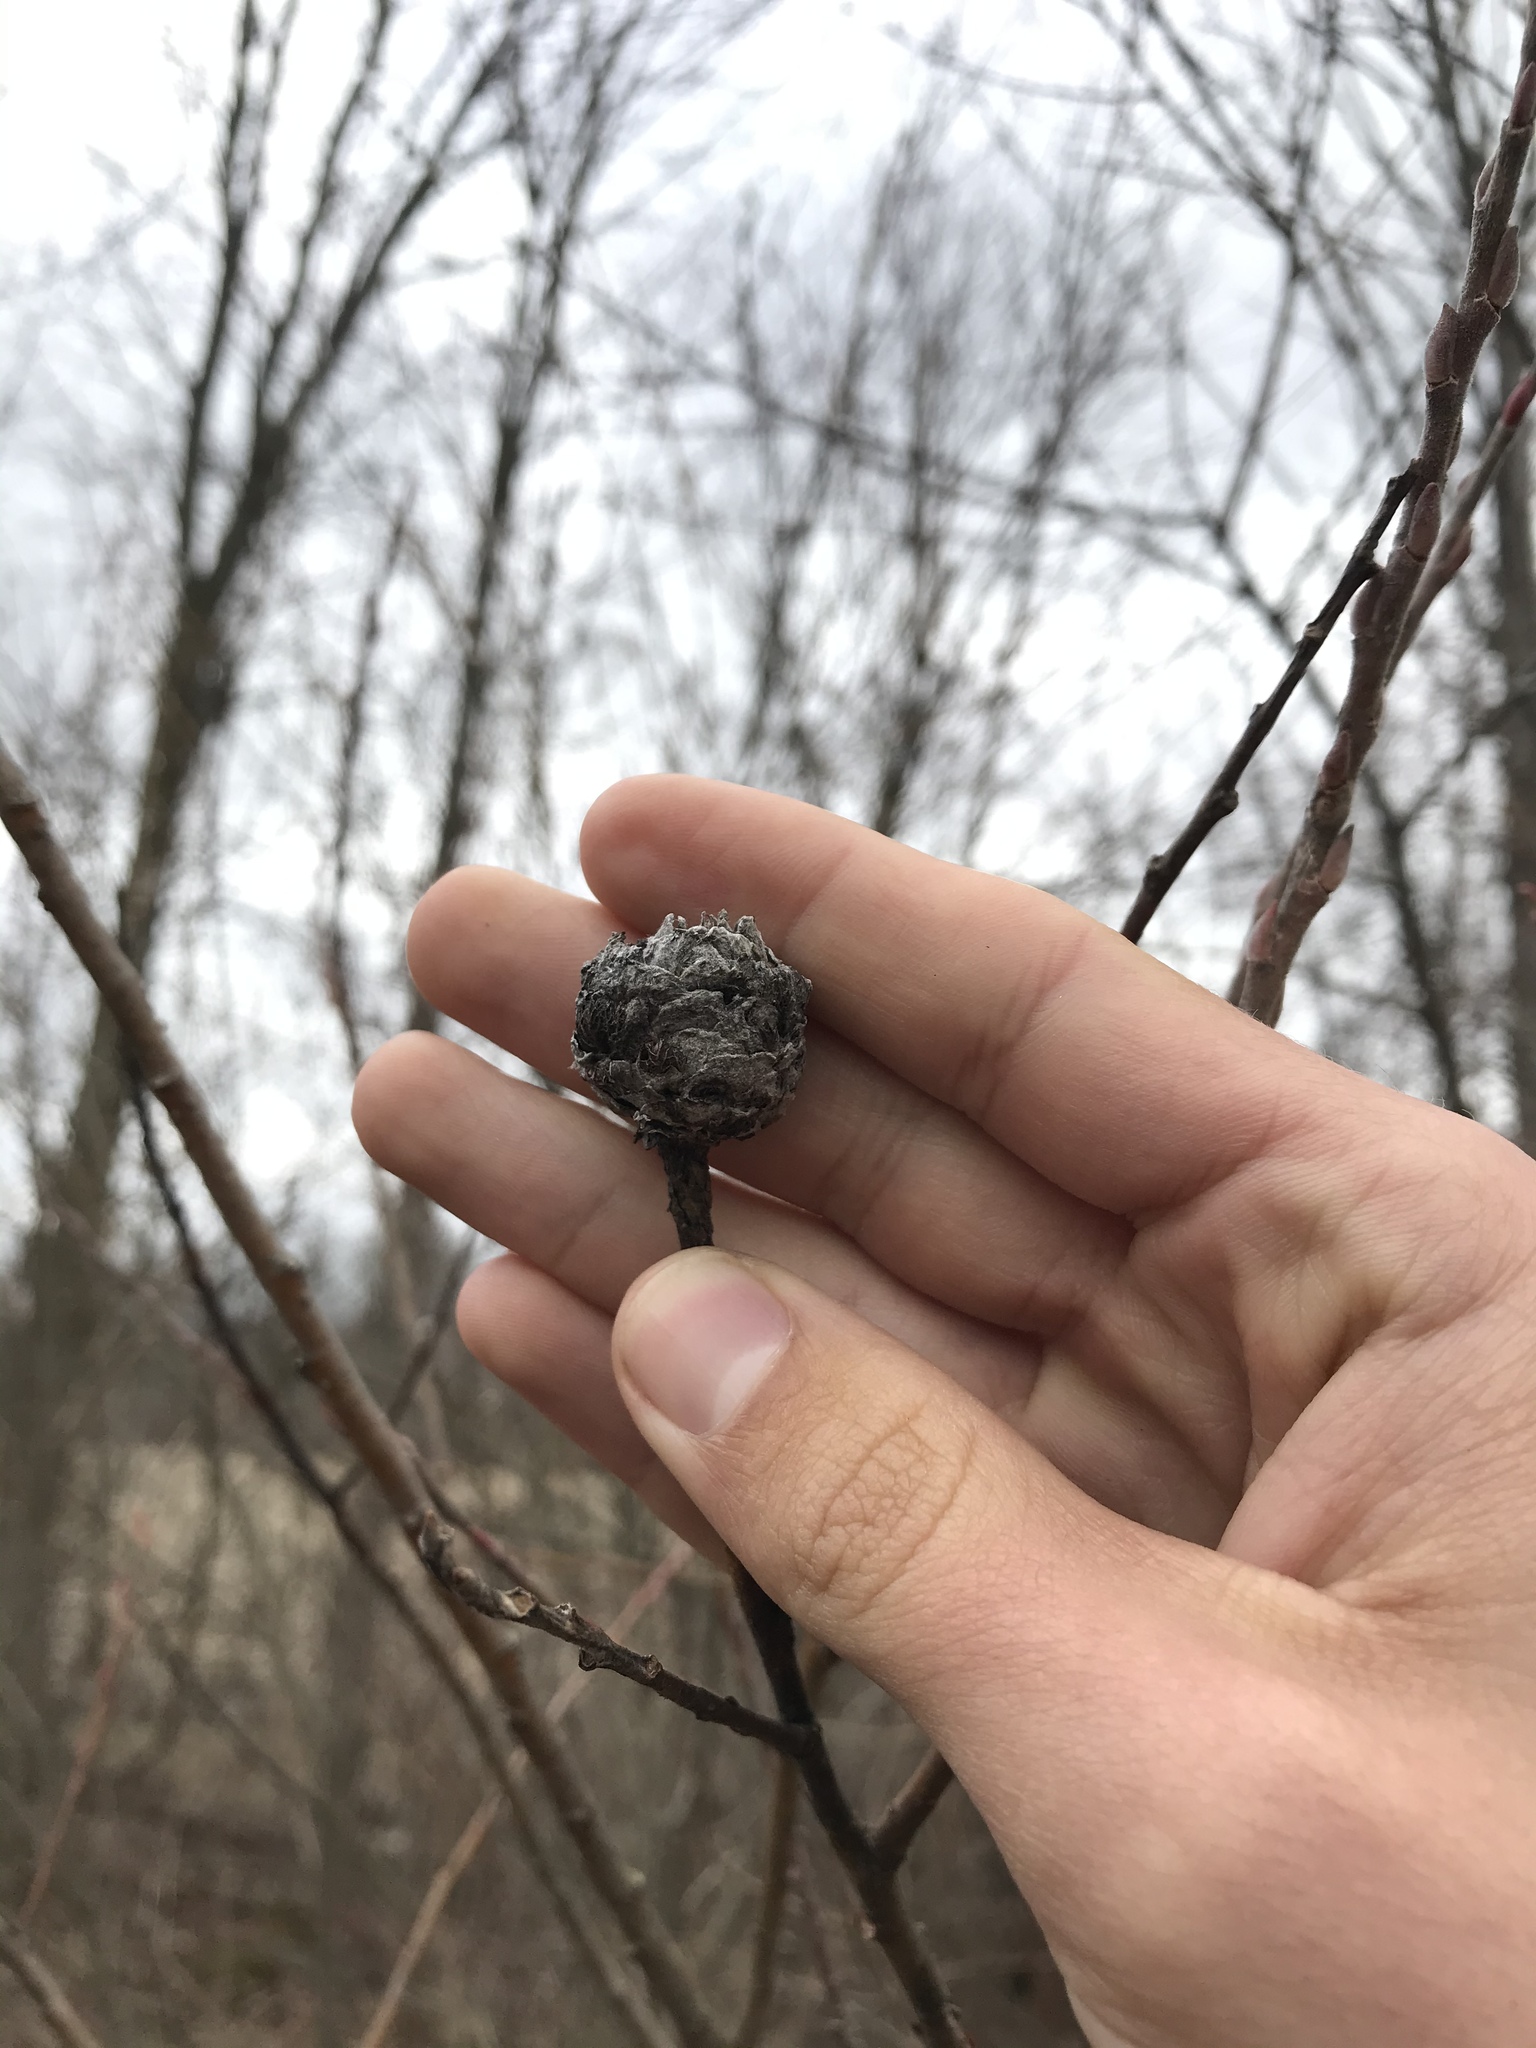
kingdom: Animalia
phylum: Arthropoda
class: Insecta
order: Diptera
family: Cecidomyiidae
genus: Rabdophaga
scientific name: Rabdophaga strobiloides
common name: Willow pinecone gall midge
